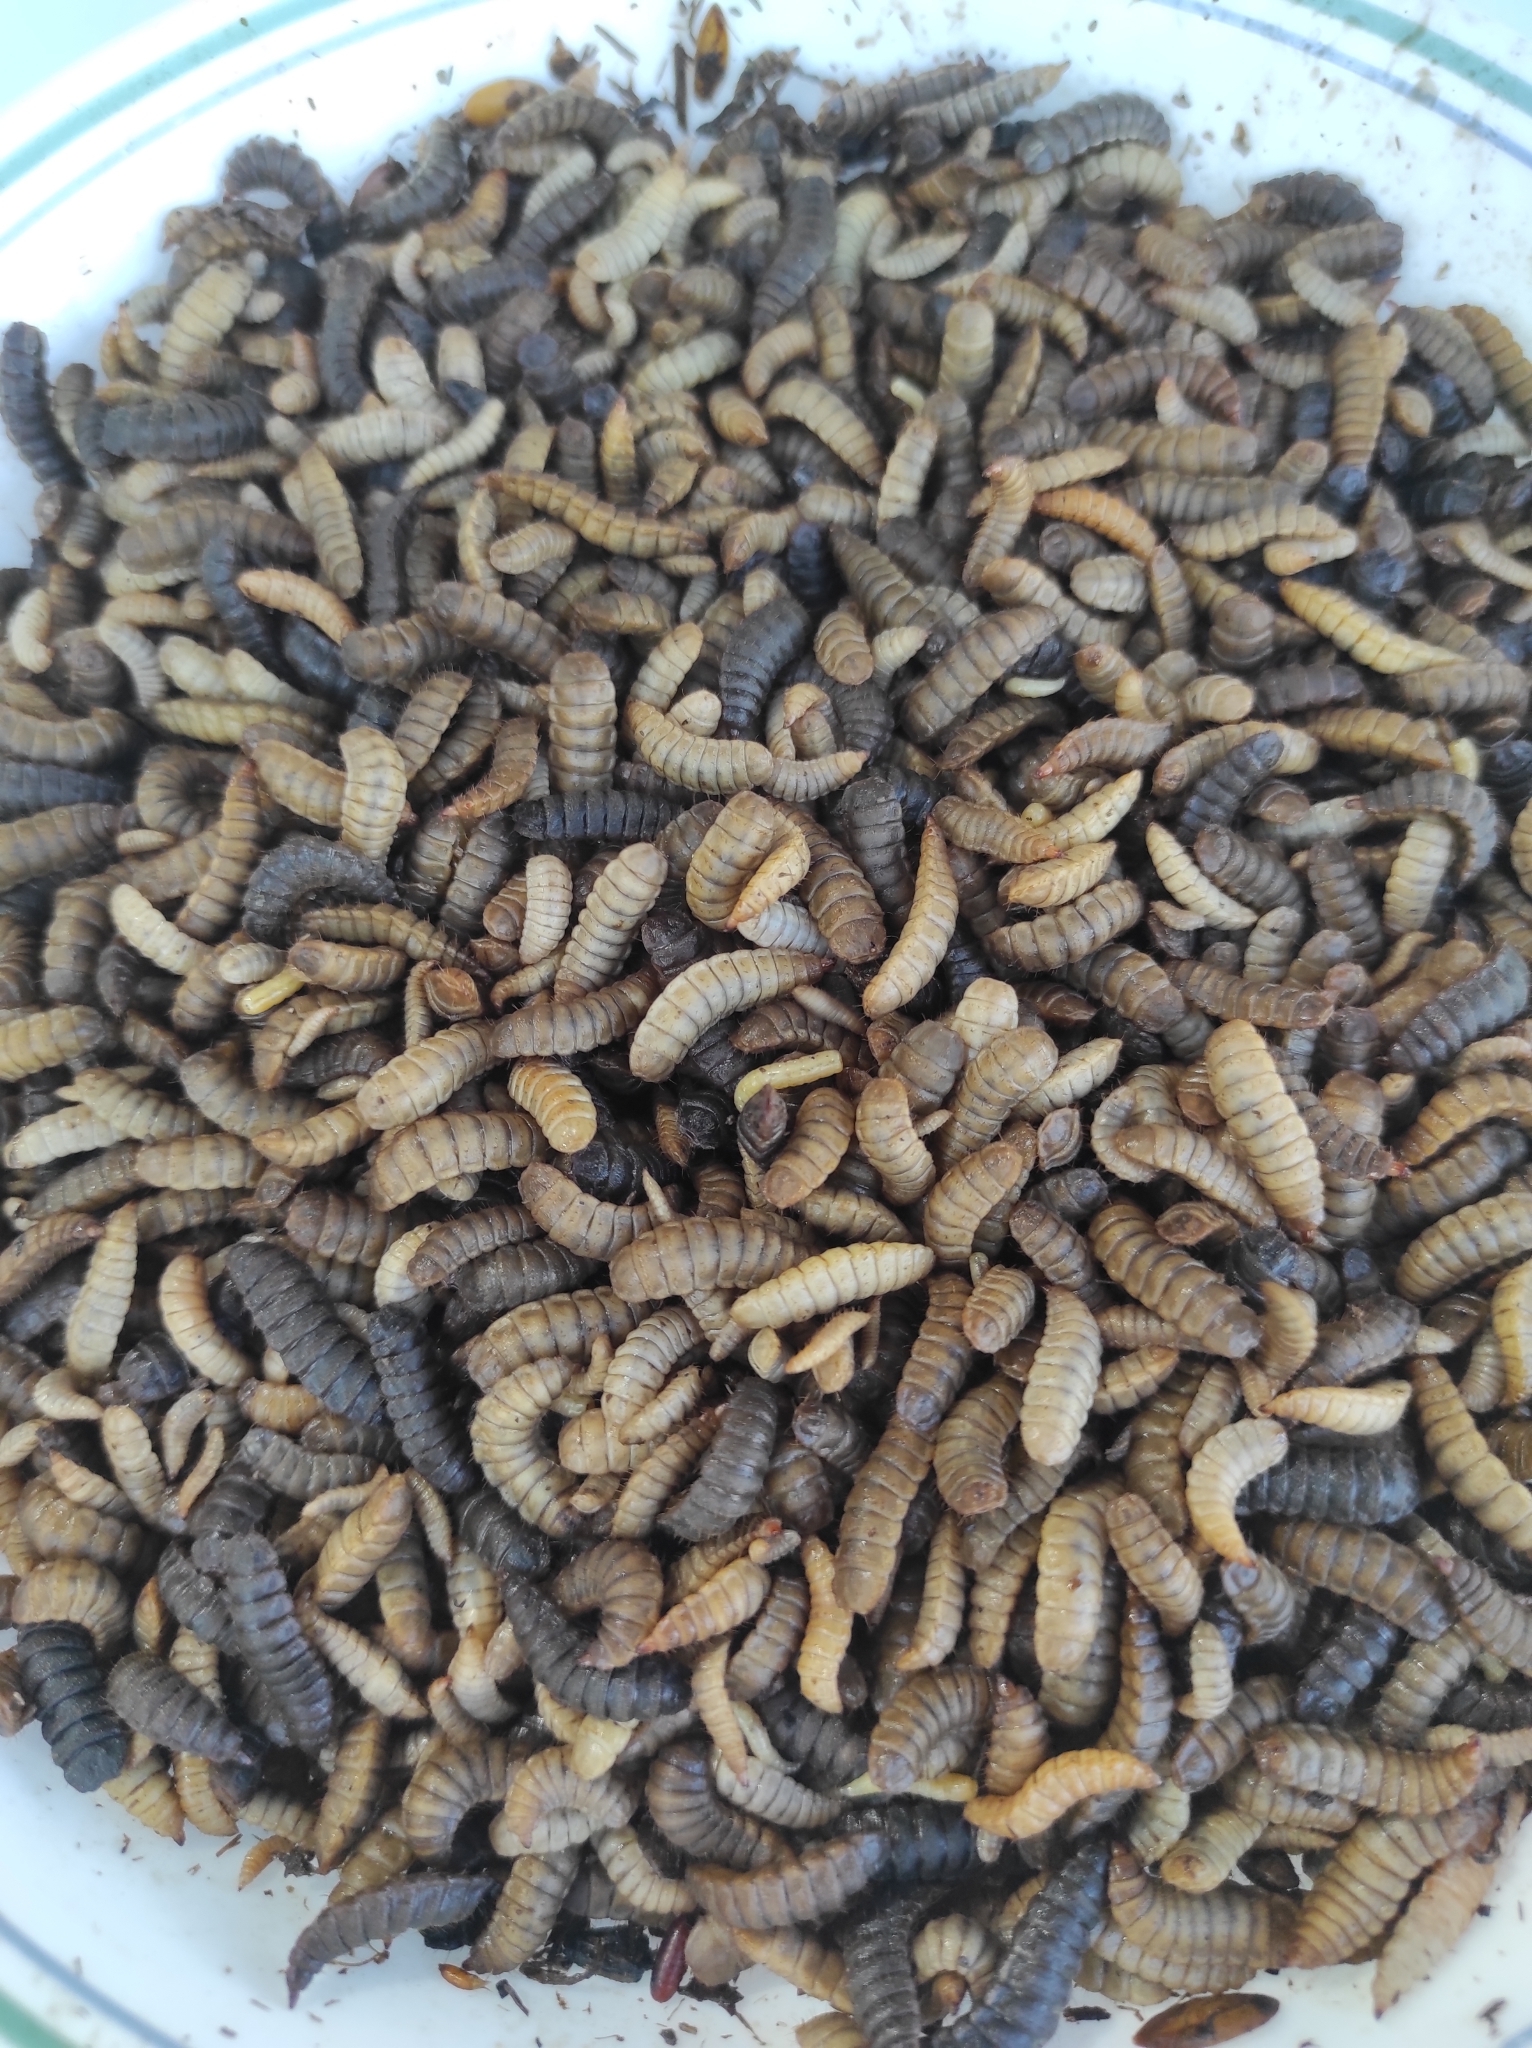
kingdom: Animalia
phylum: Arthropoda
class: Insecta
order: Diptera
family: Stratiomyidae
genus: Hermetia
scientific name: Hermetia illucens
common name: Black soldier fly
